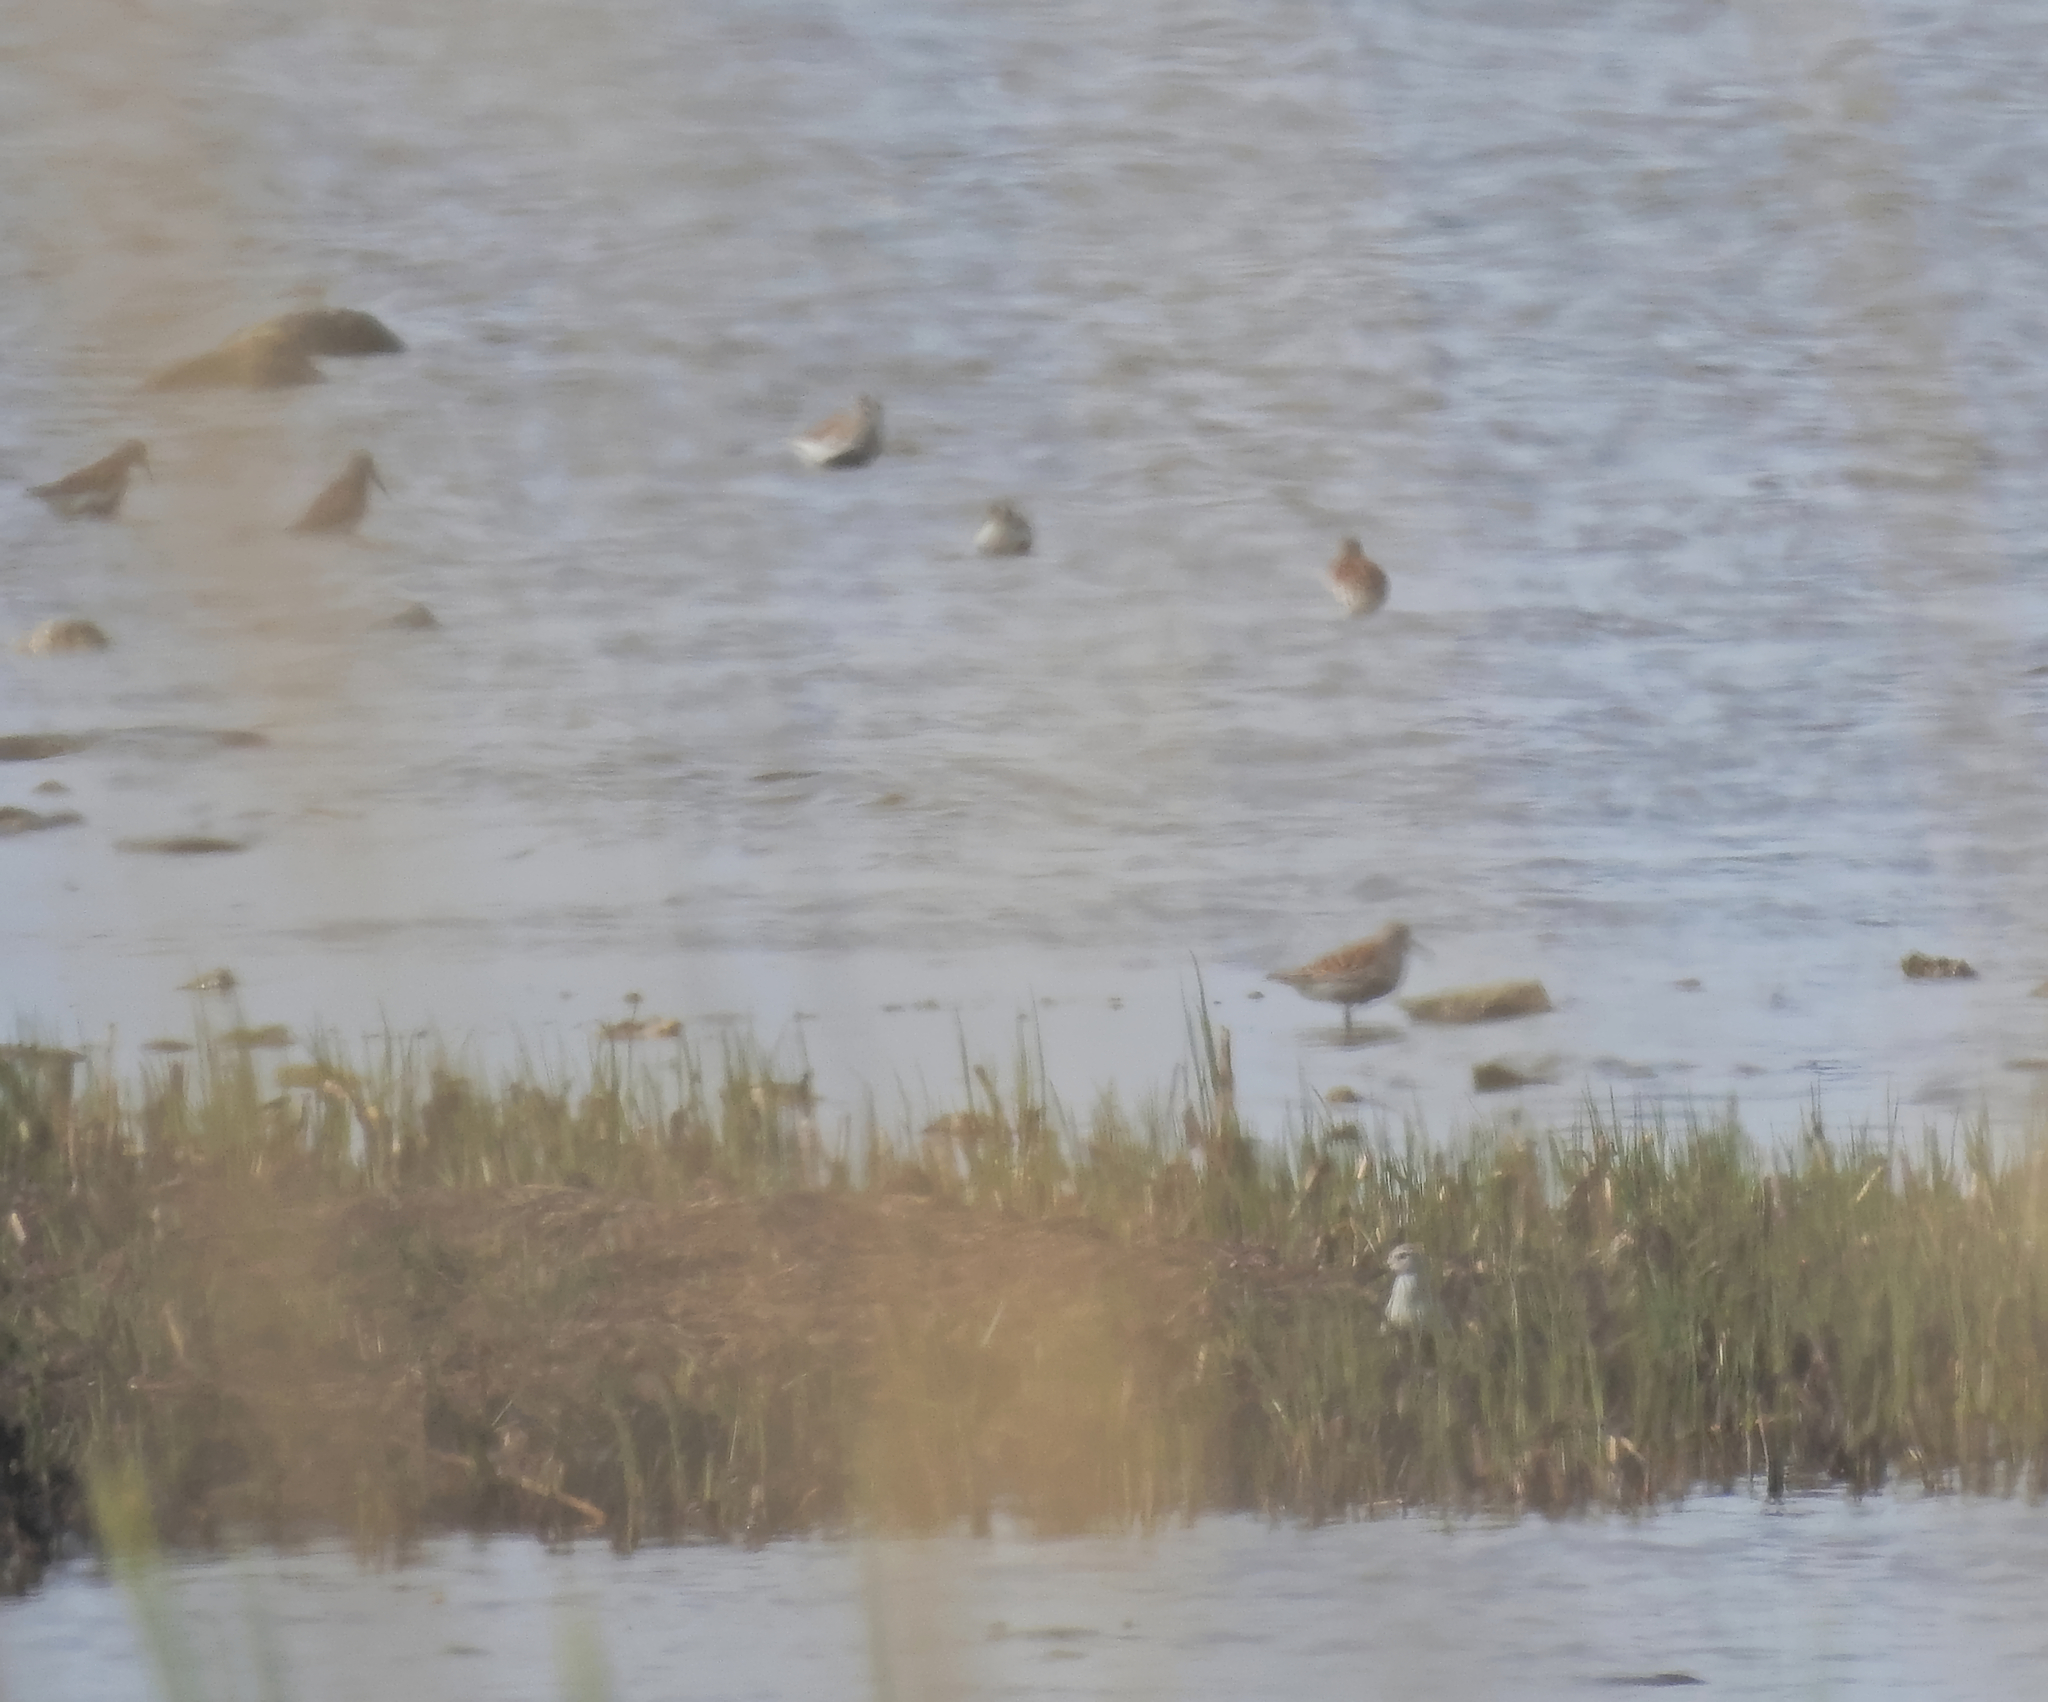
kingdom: Animalia
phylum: Chordata
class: Aves
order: Charadriiformes
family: Scolopacidae
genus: Calidris
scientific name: Calidris alpina
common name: Dunlin
